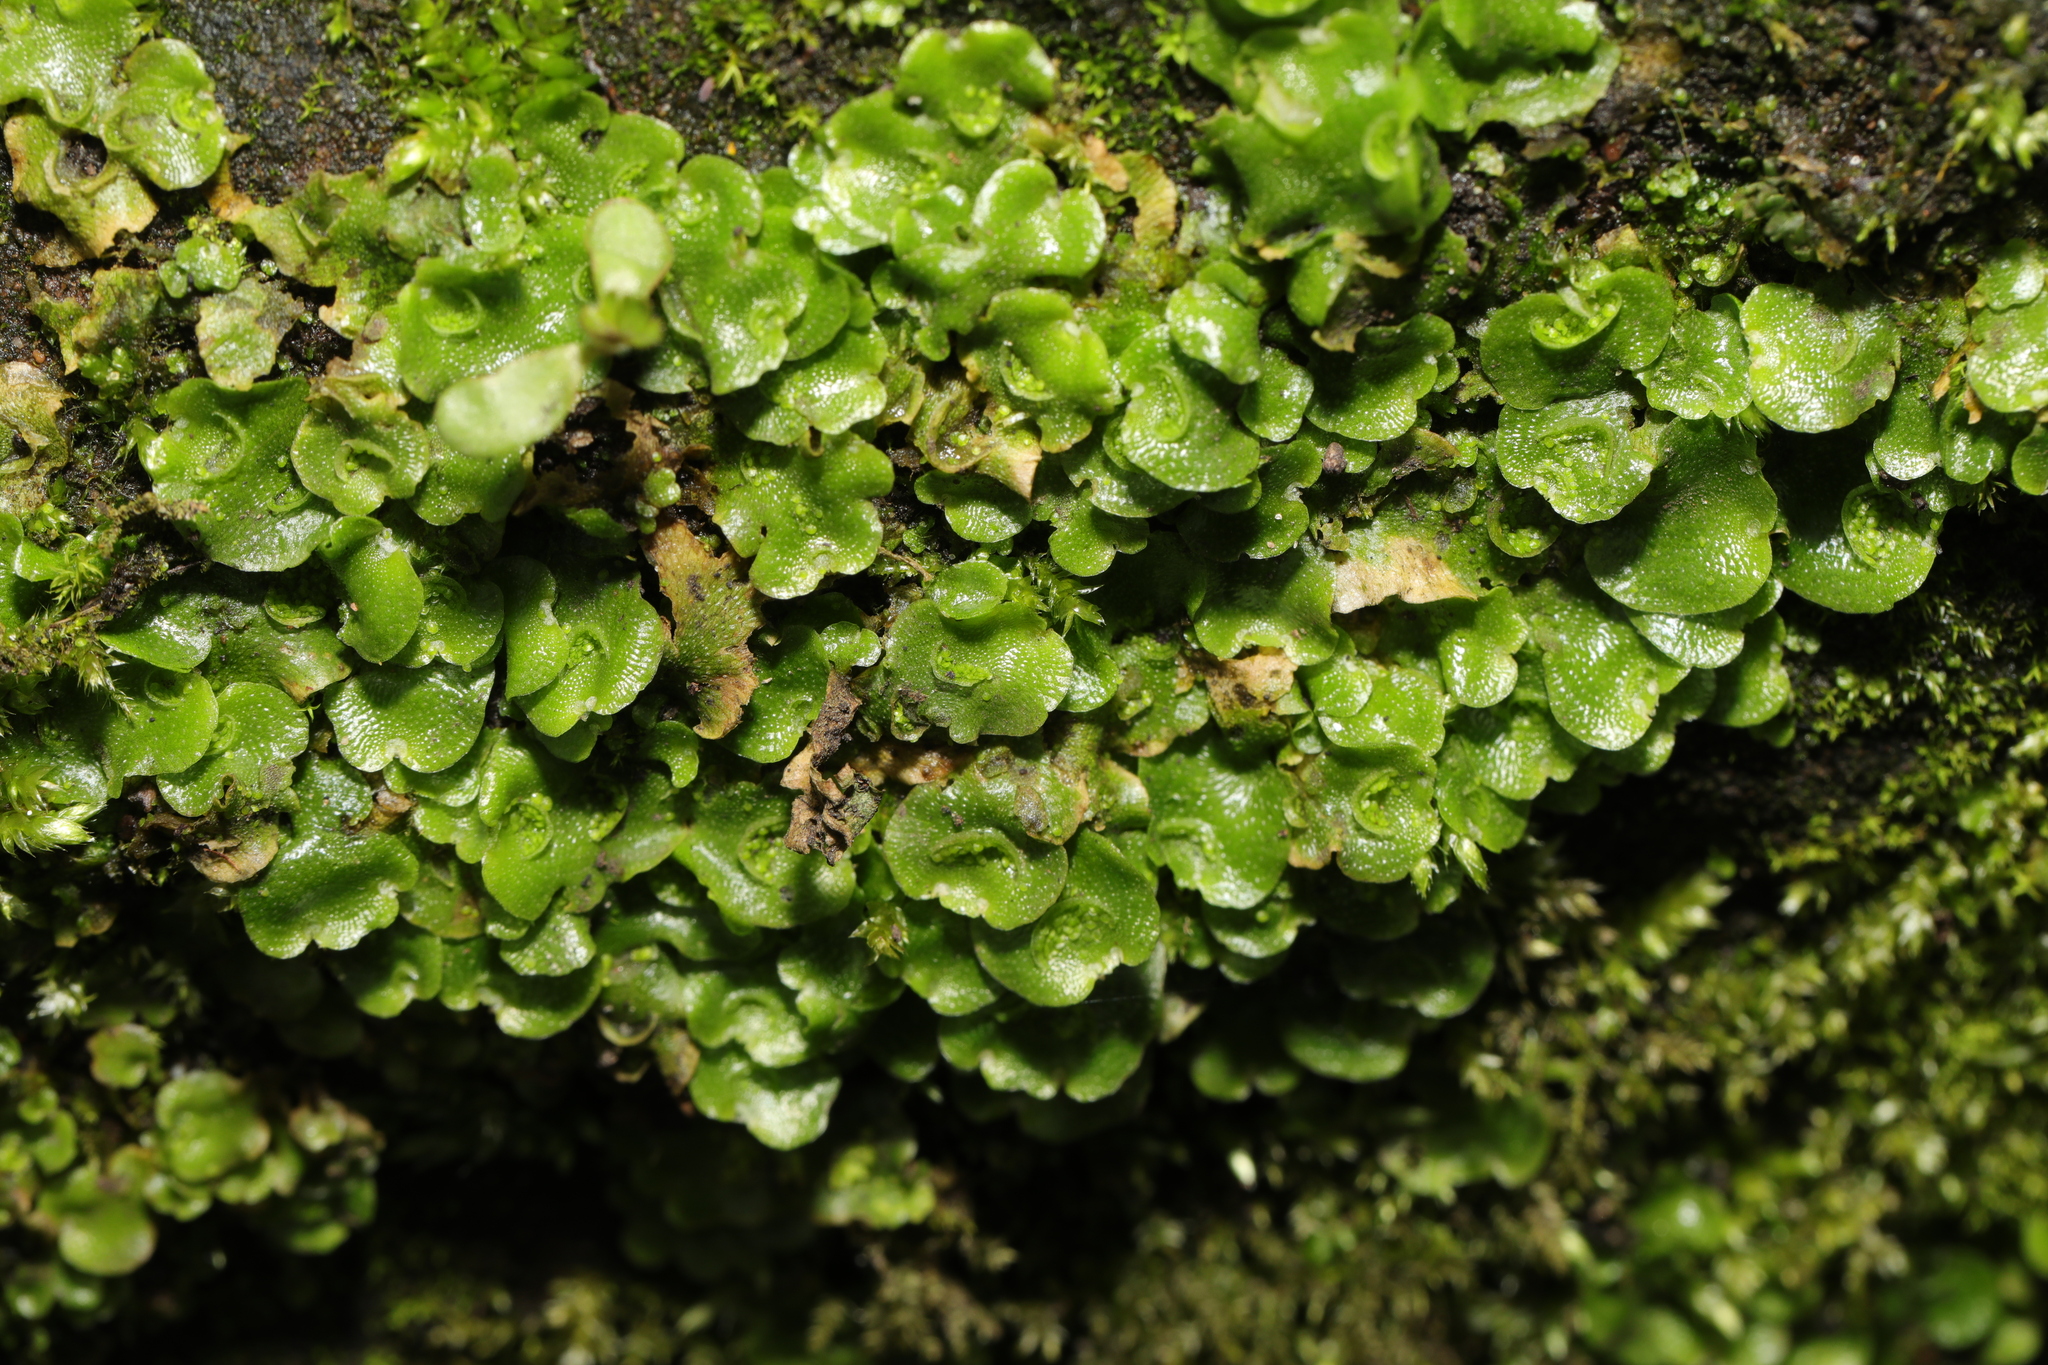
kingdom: Plantae
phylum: Marchantiophyta
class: Marchantiopsida
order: Lunulariales
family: Lunulariaceae
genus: Lunularia
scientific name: Lunularia cruciata
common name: Crescent-cup liverwort
